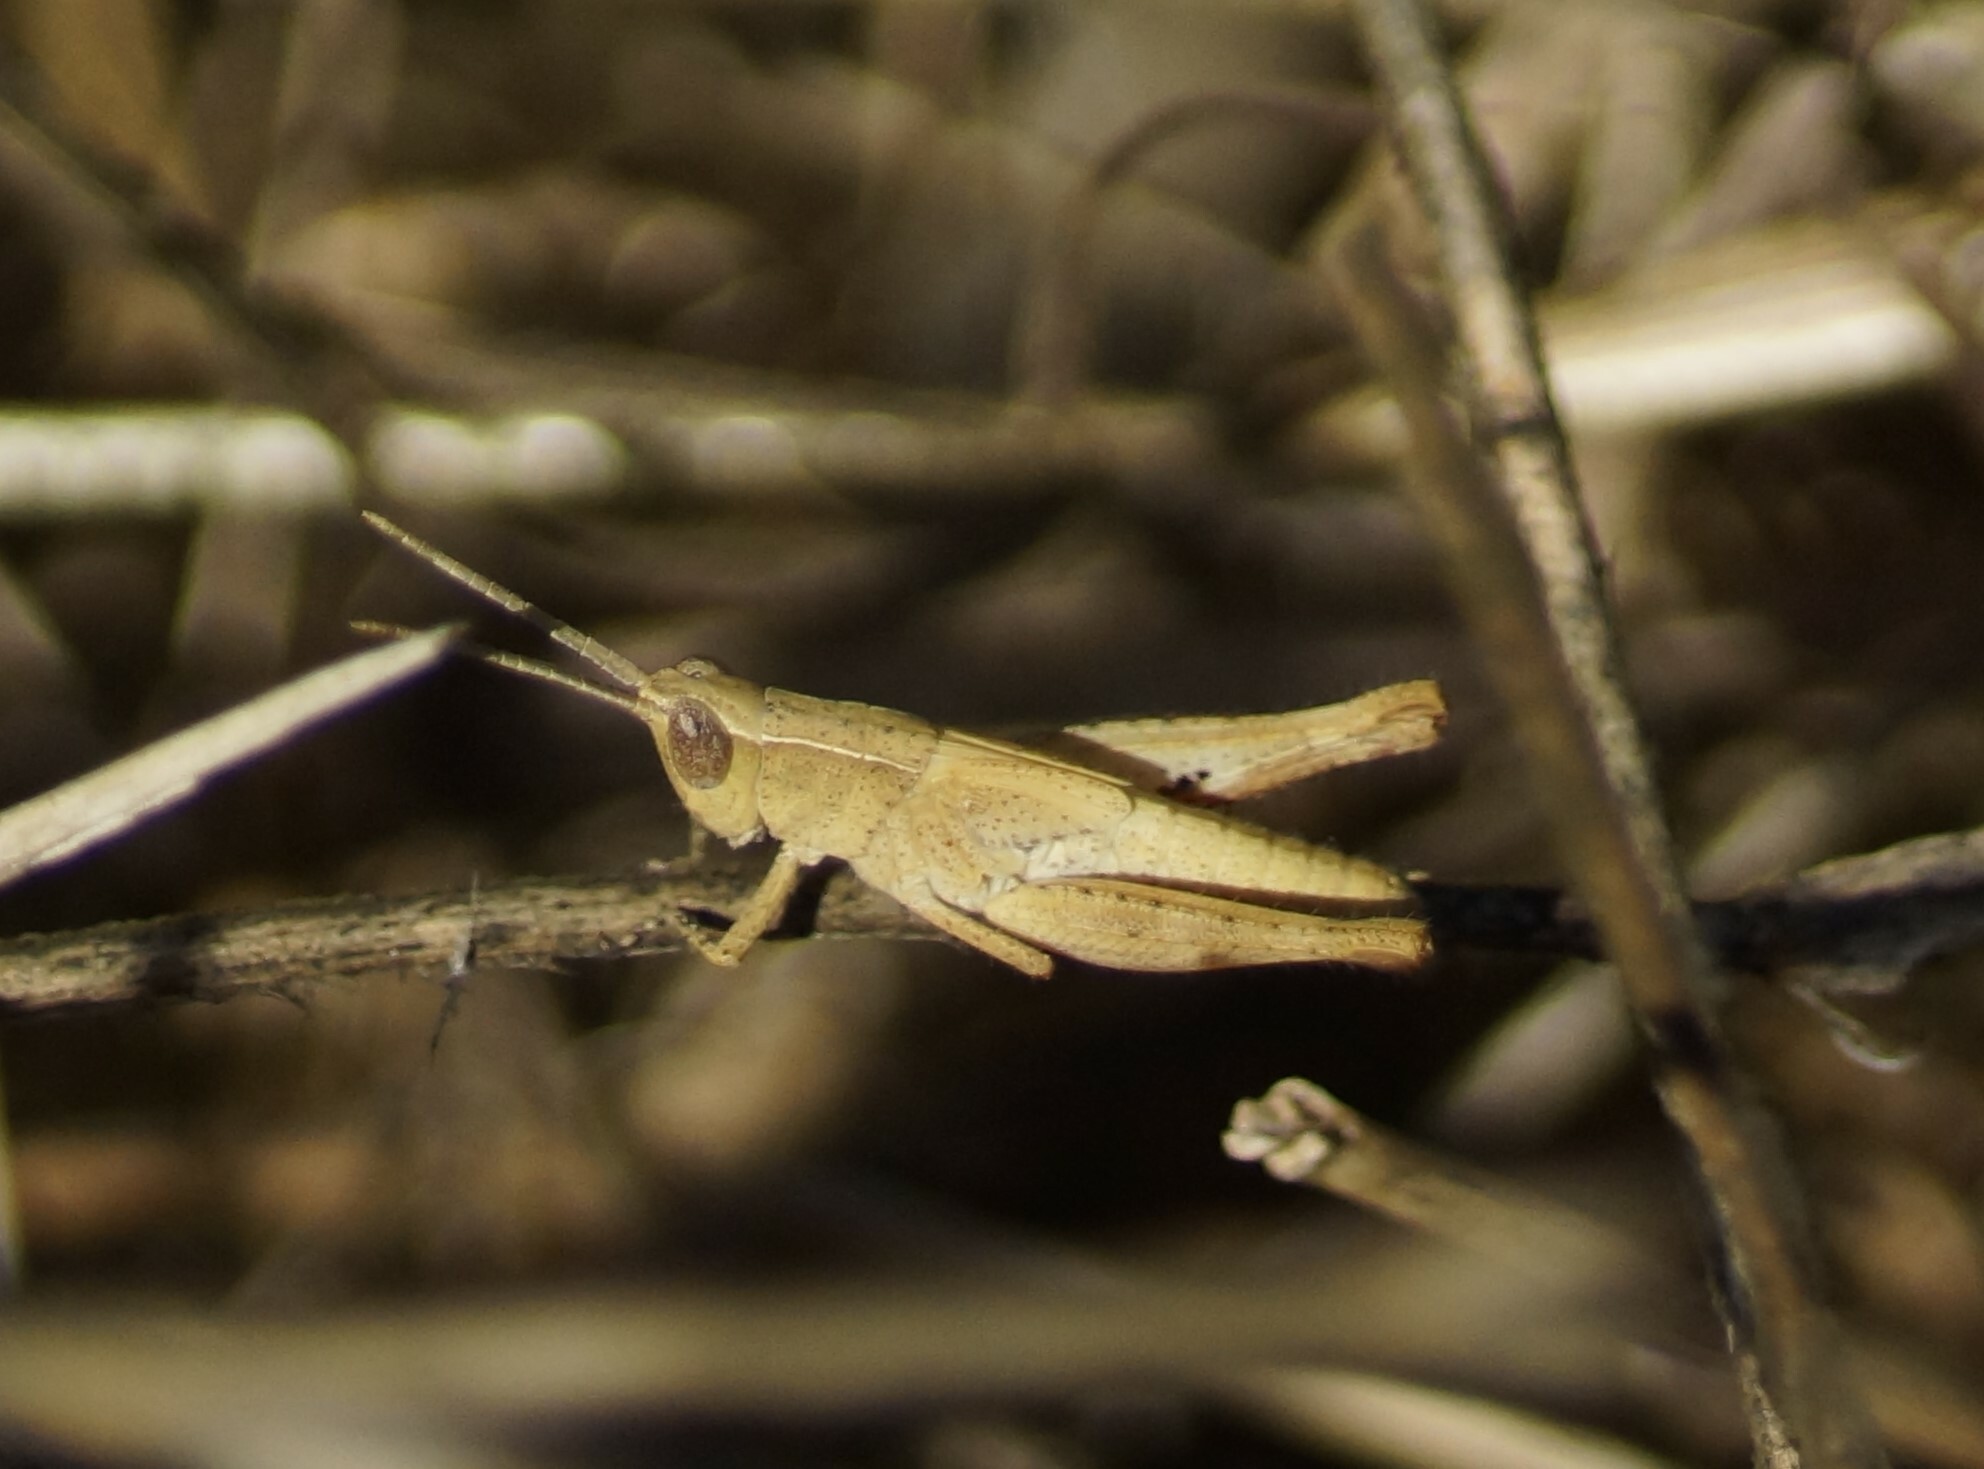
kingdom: Animalia
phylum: Arthropoda
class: Insecta
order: Orthoptera
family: Acrididae
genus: Stenocatantops
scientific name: Stenocatantops vitripennis
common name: Light-brown sharptail
